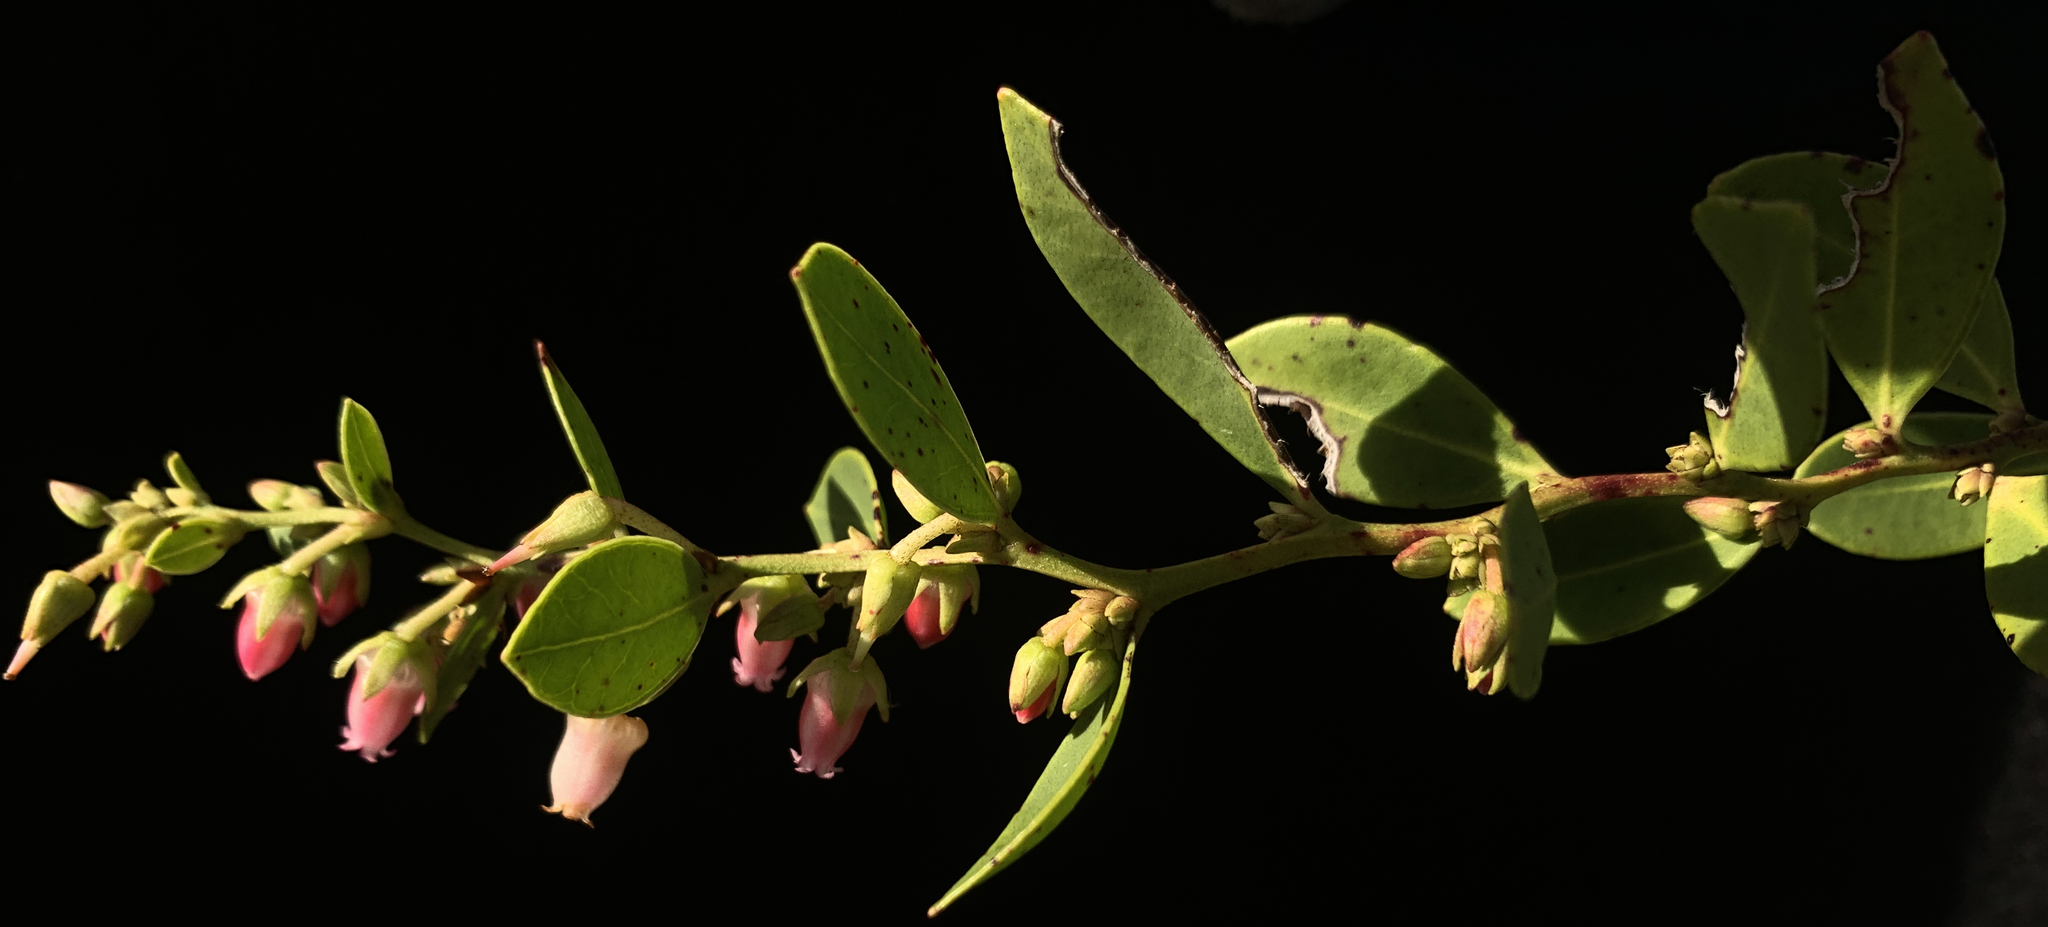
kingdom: Plantae
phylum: Tracheophyta
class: Magnoliopsida
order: Ericales
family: Ericaceae
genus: Lyonia
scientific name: Lyonia lucida
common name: Fetterbush
